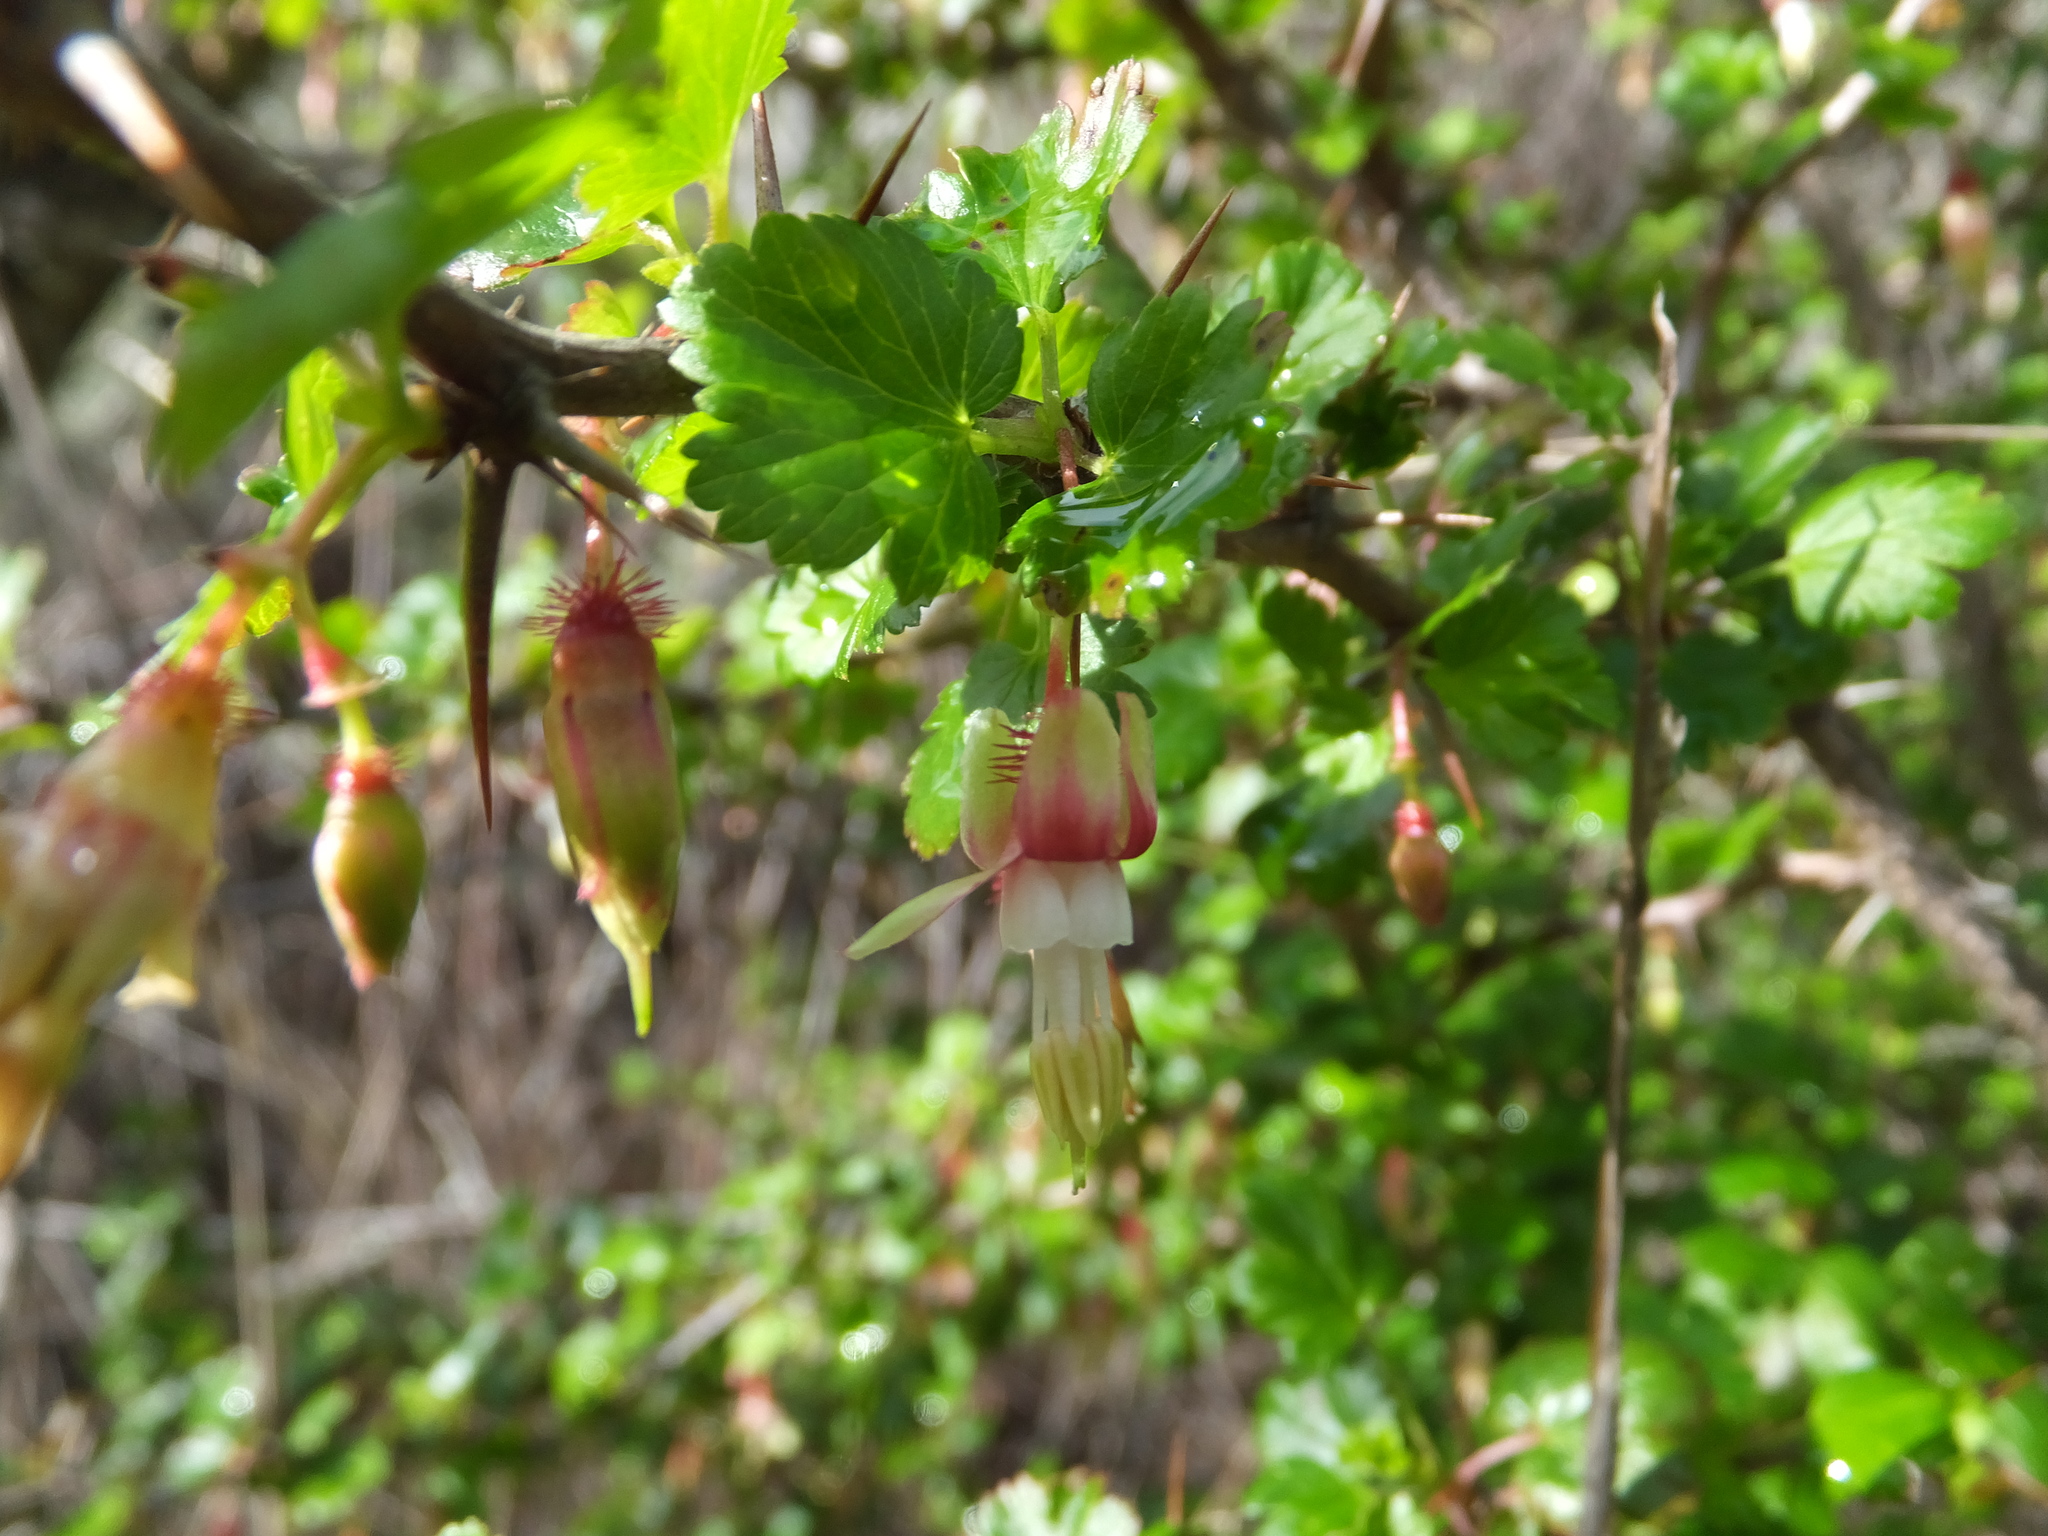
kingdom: Plantae
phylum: Tracheophyta
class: Magnoliopsida
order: Saxifragales
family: Grossulariaceae
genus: Ribes
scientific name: Ribes californicum
